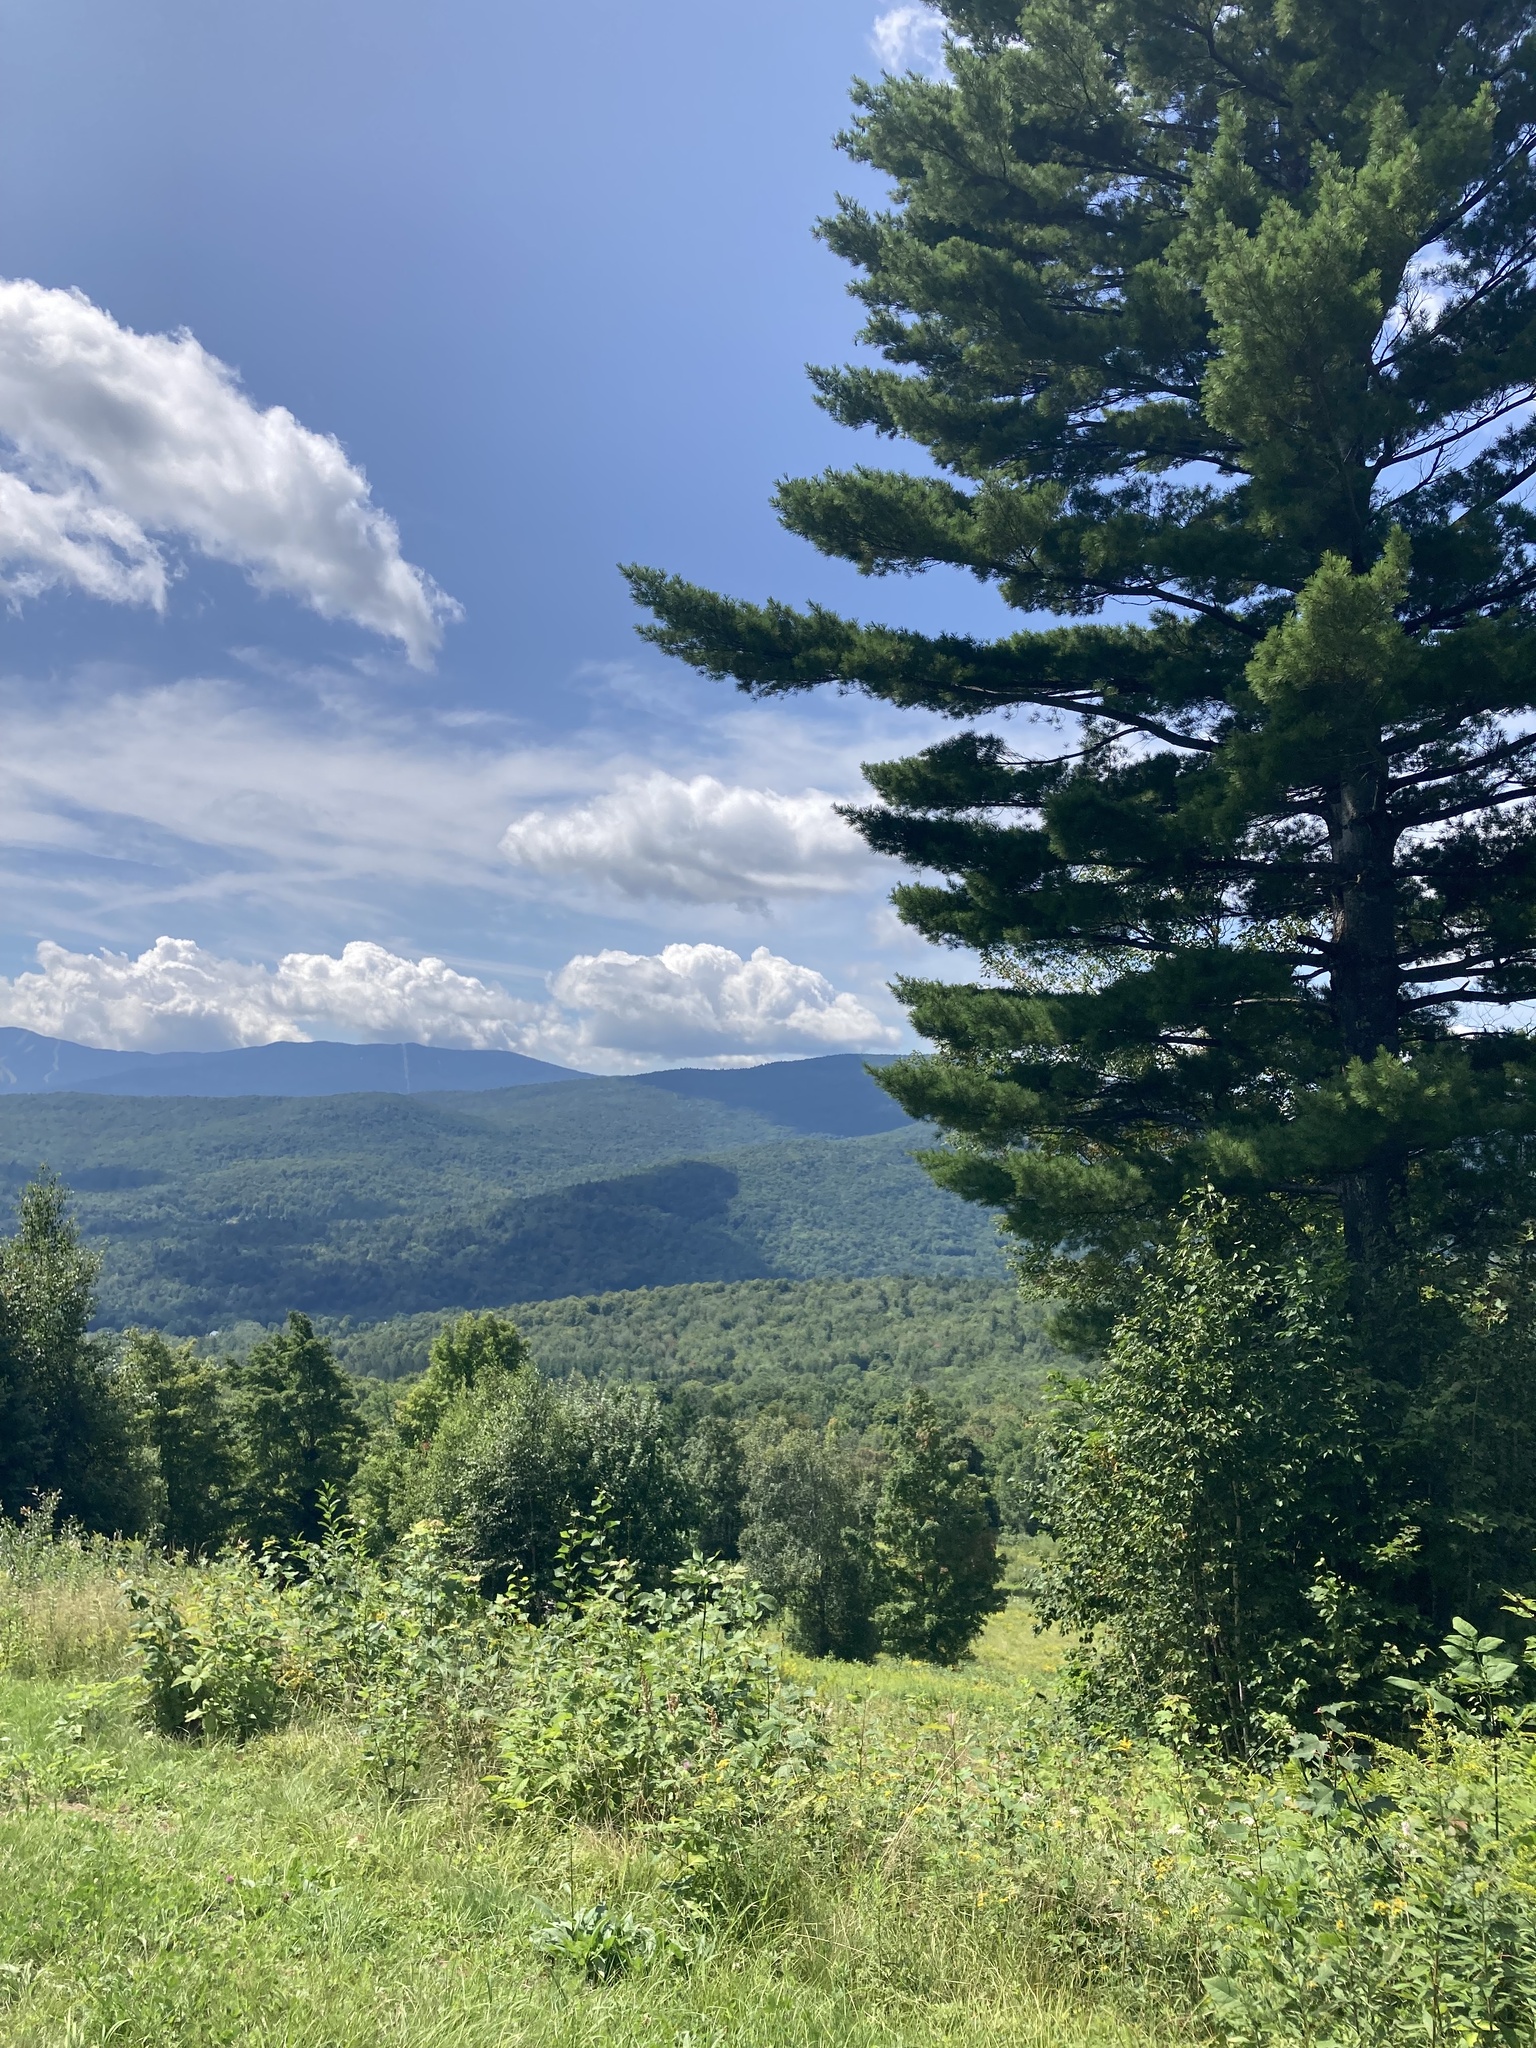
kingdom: Plantae
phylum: Tracheophyta
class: Pinopsida
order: Pinales
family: Pinaceae
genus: Pinus
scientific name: Pinus strobus
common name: Weymouth pine
